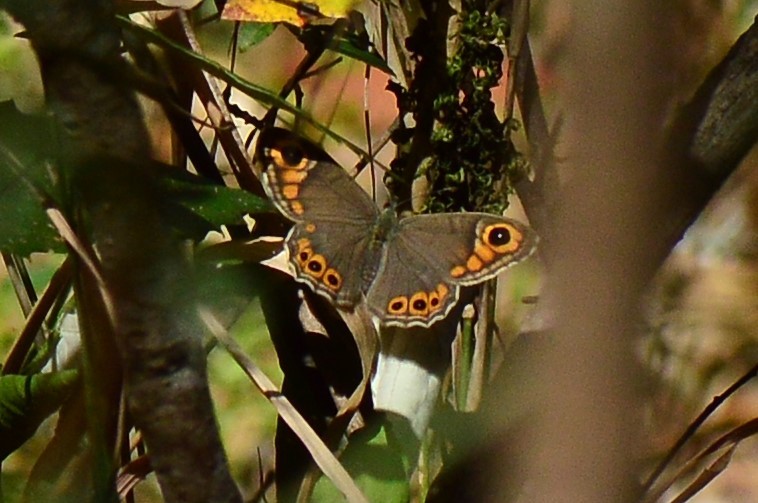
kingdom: Animalia
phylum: Arthropoda
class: Insecta
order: Lepidoptera
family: Nymphalidae
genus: Pararge
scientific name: Pararge Lasiommata schakra
